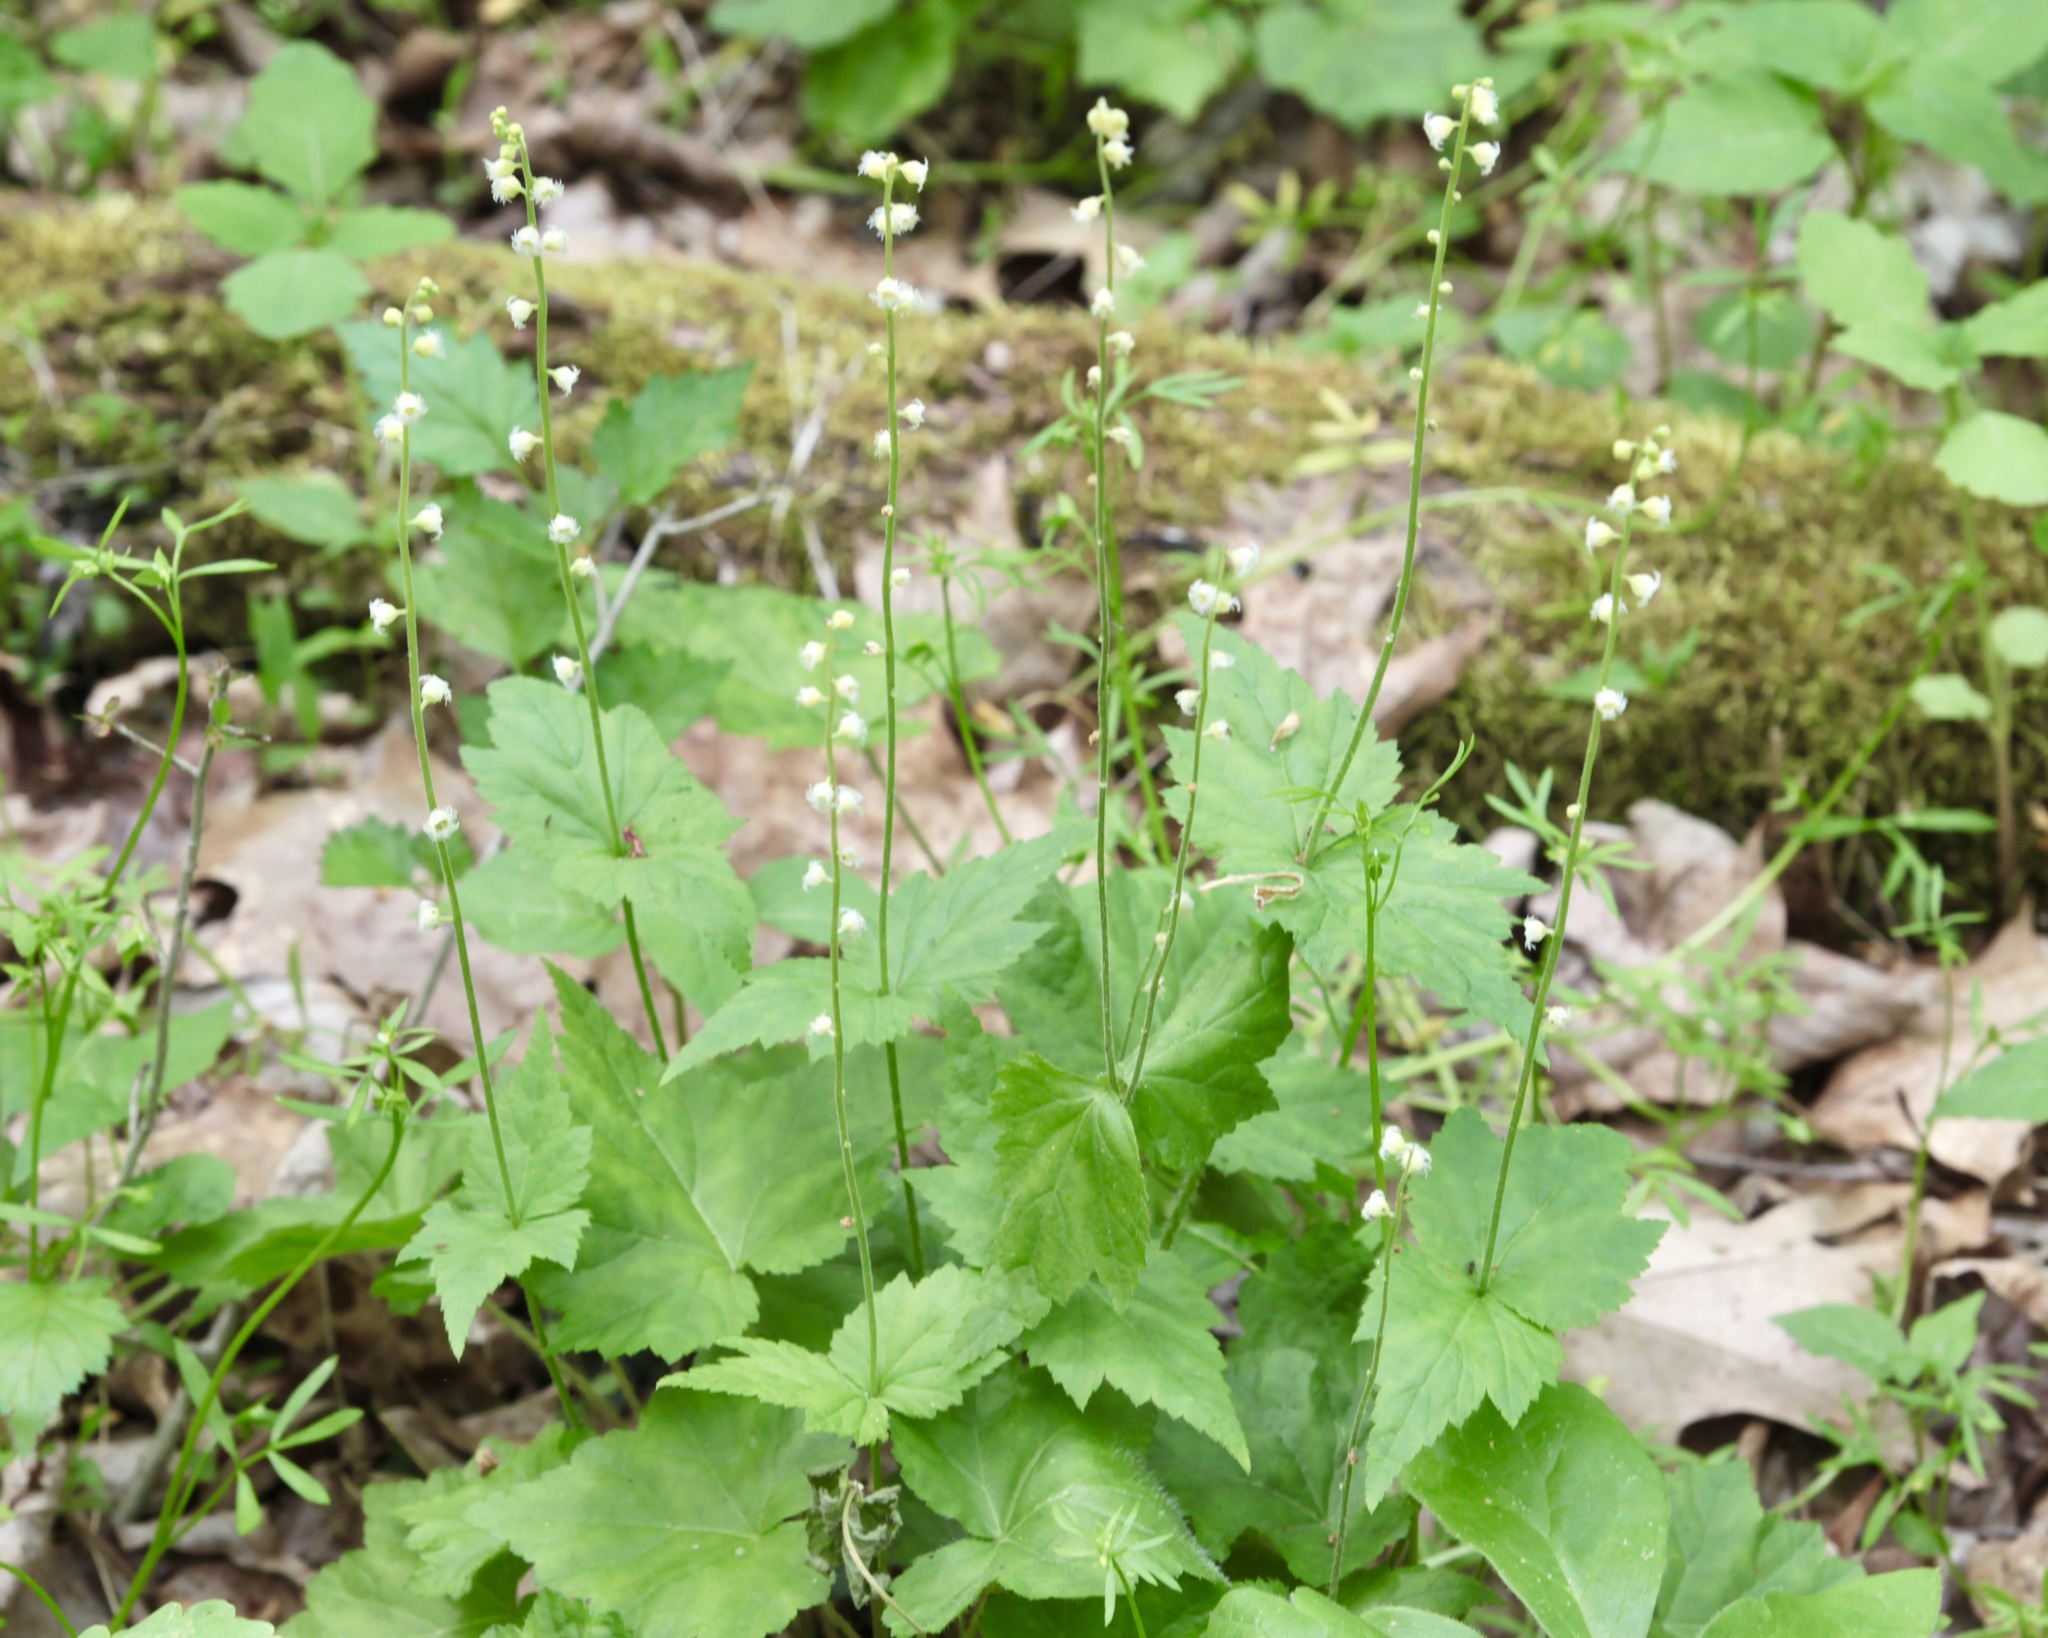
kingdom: Plantae
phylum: Tracheophyta
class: Magnoliopsida
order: Saxifragales
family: Saxifragaceae
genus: Mitella
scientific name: Mitella diphylla
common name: Coolwort
